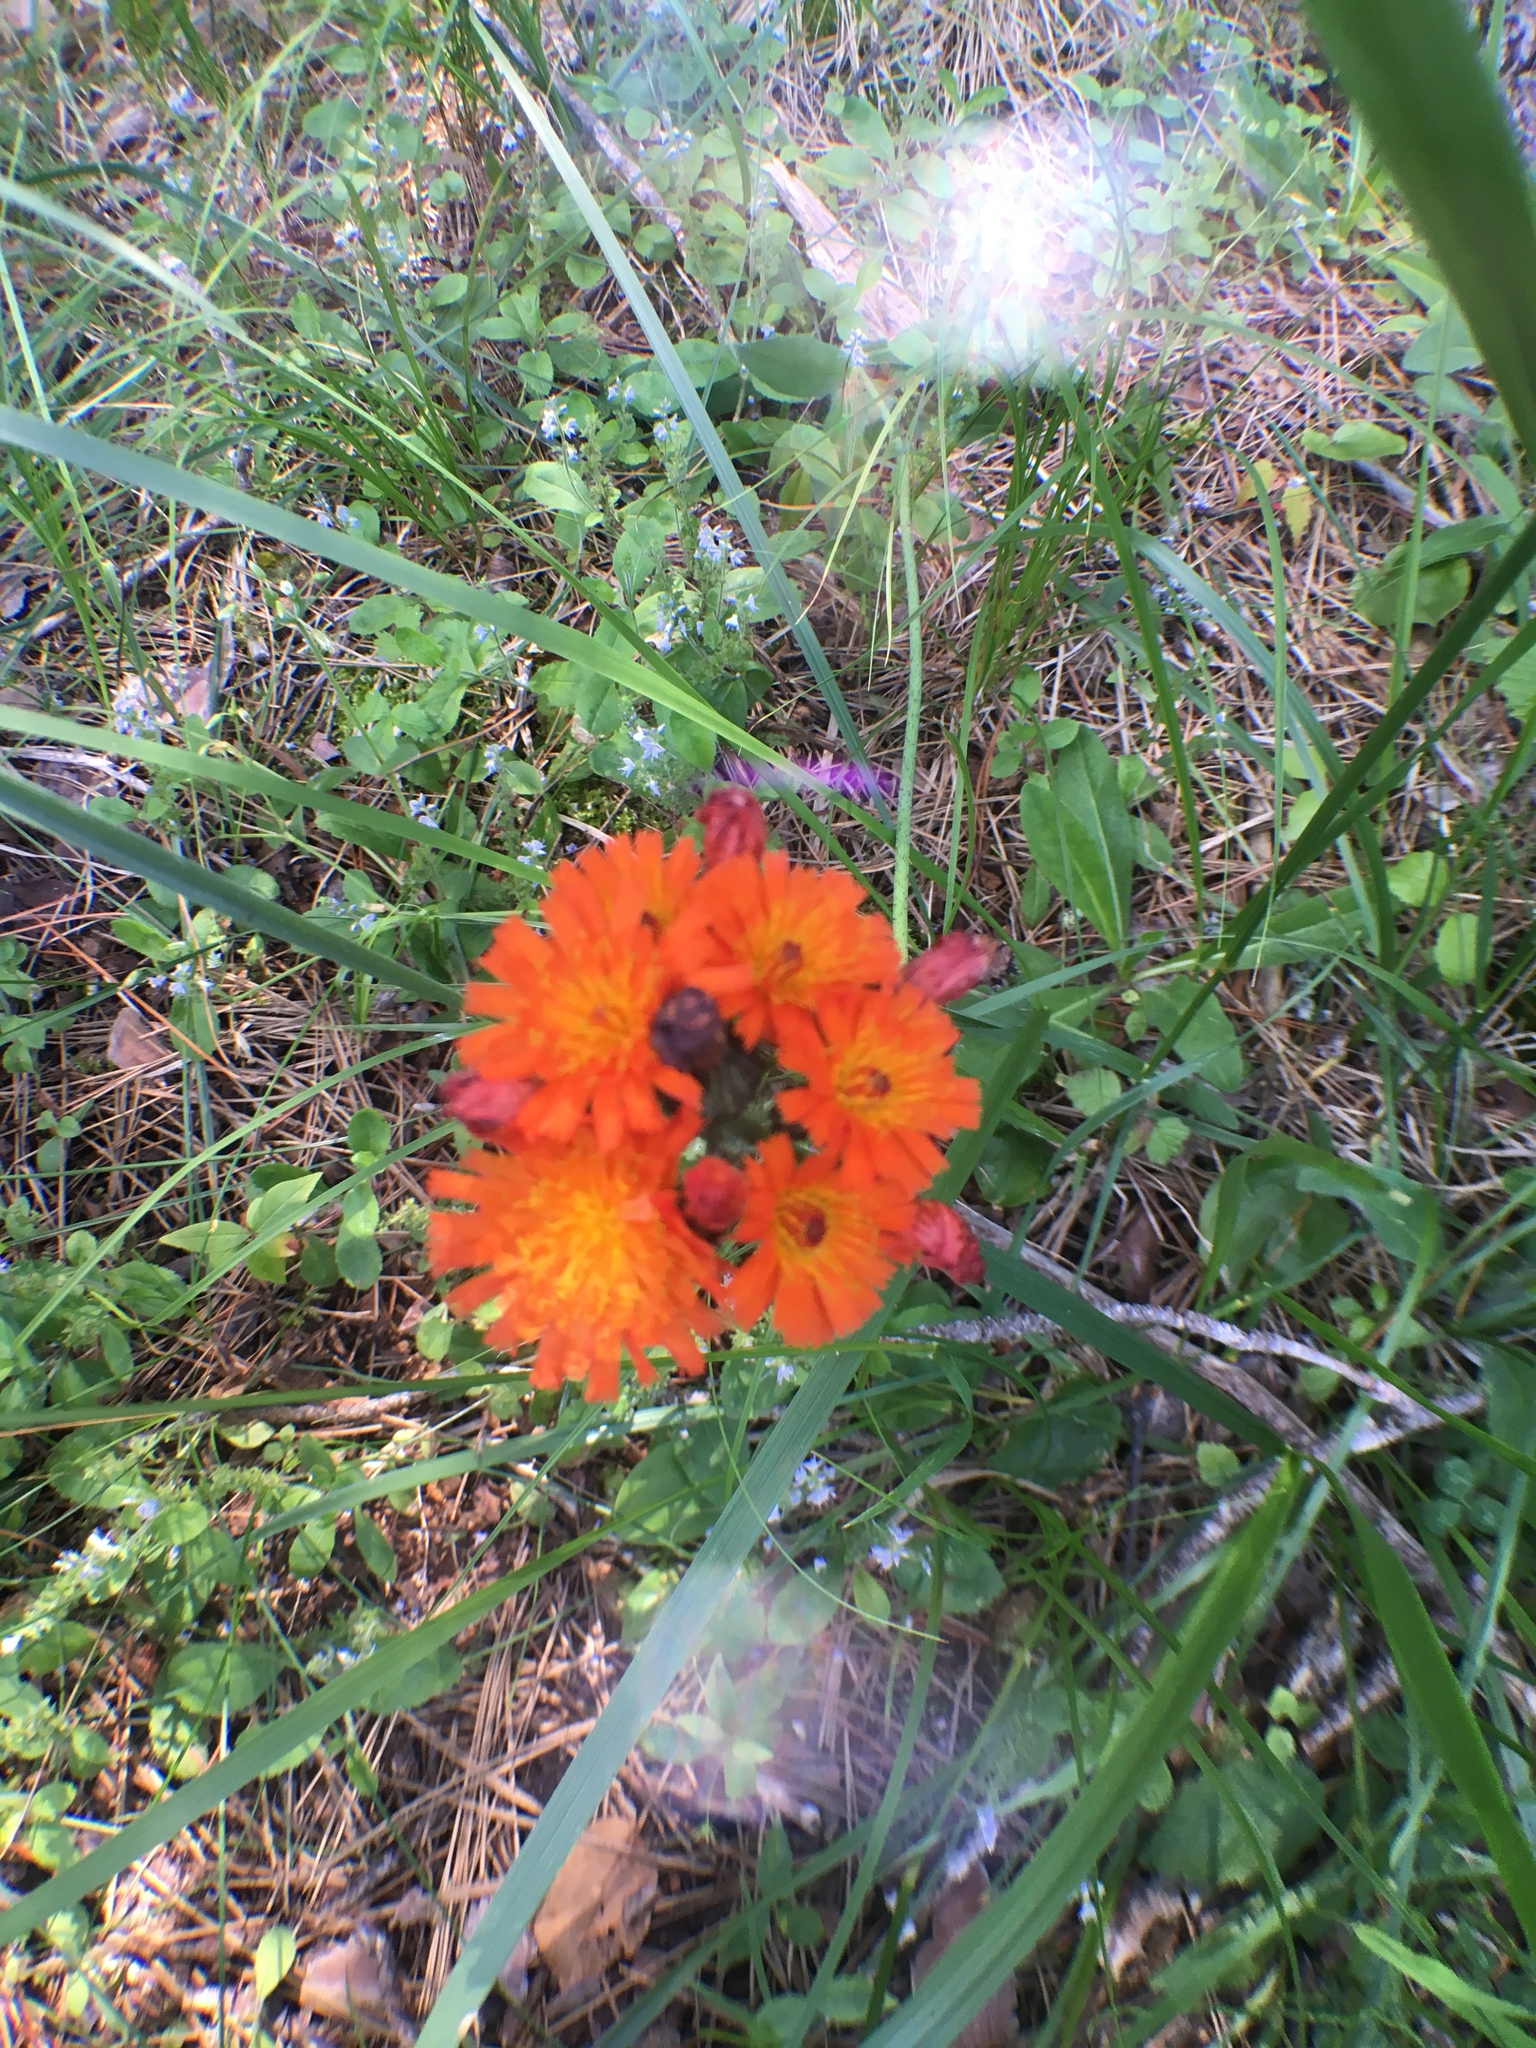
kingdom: Plantae
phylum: Tracheophyta
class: Magnoliopsida
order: Asterales
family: Asteraceae
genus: Pilosella
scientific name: Pilosella aurantiaca
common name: Fox-and-cubs
